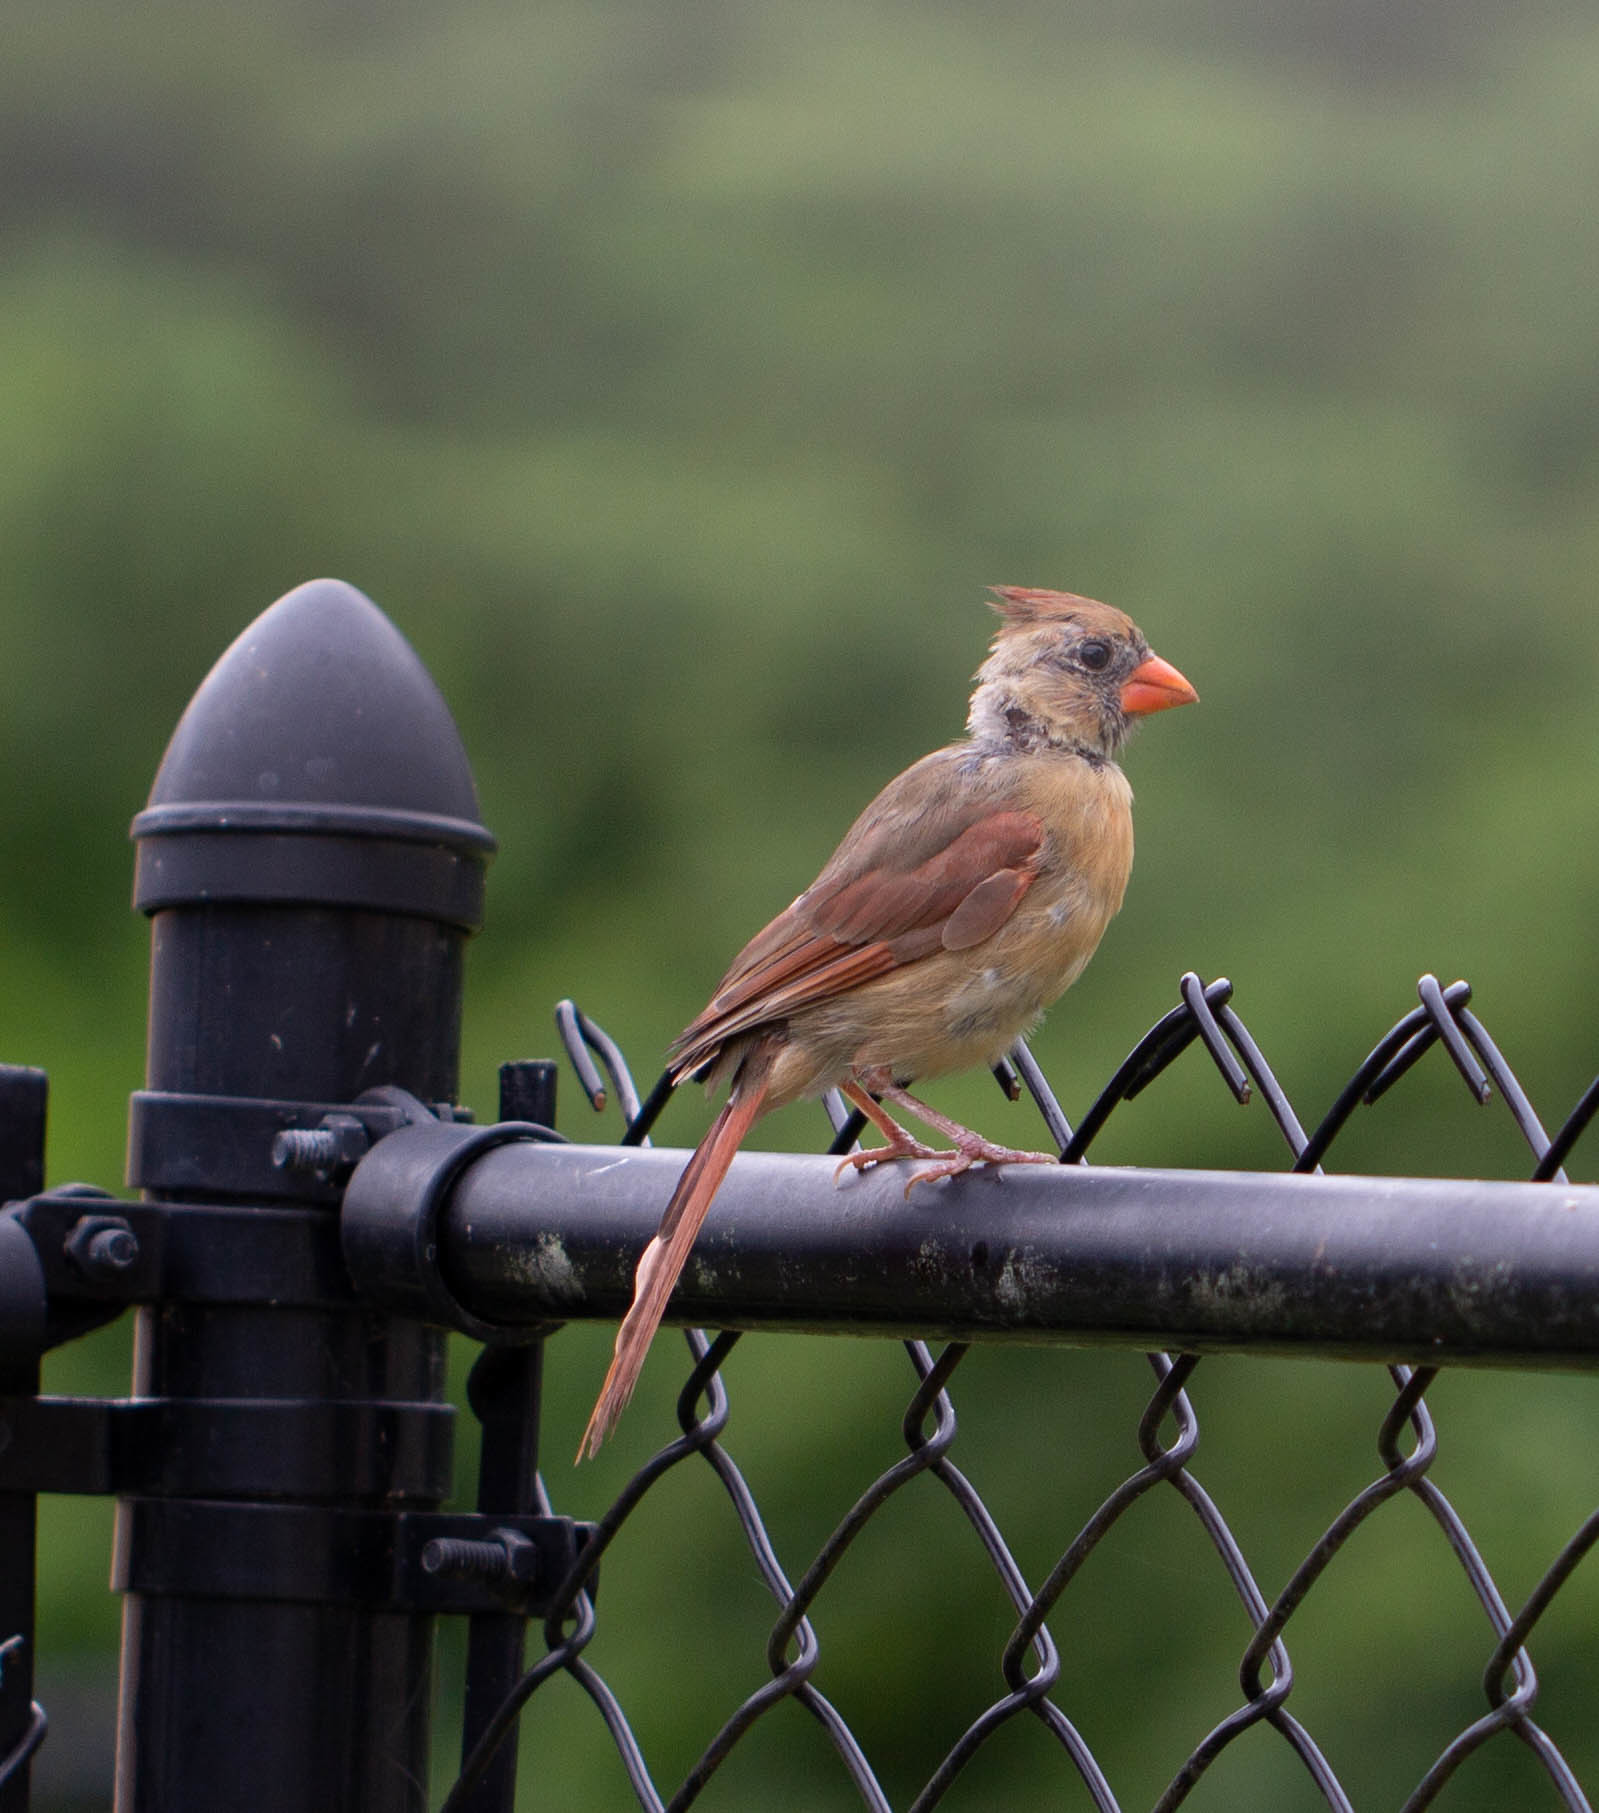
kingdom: Animalia
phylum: Chordata
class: Aves
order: Passeriformes
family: Cardinalidae
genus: Cardinalis
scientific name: Cardinalis cardinalis
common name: Northern cardinal
